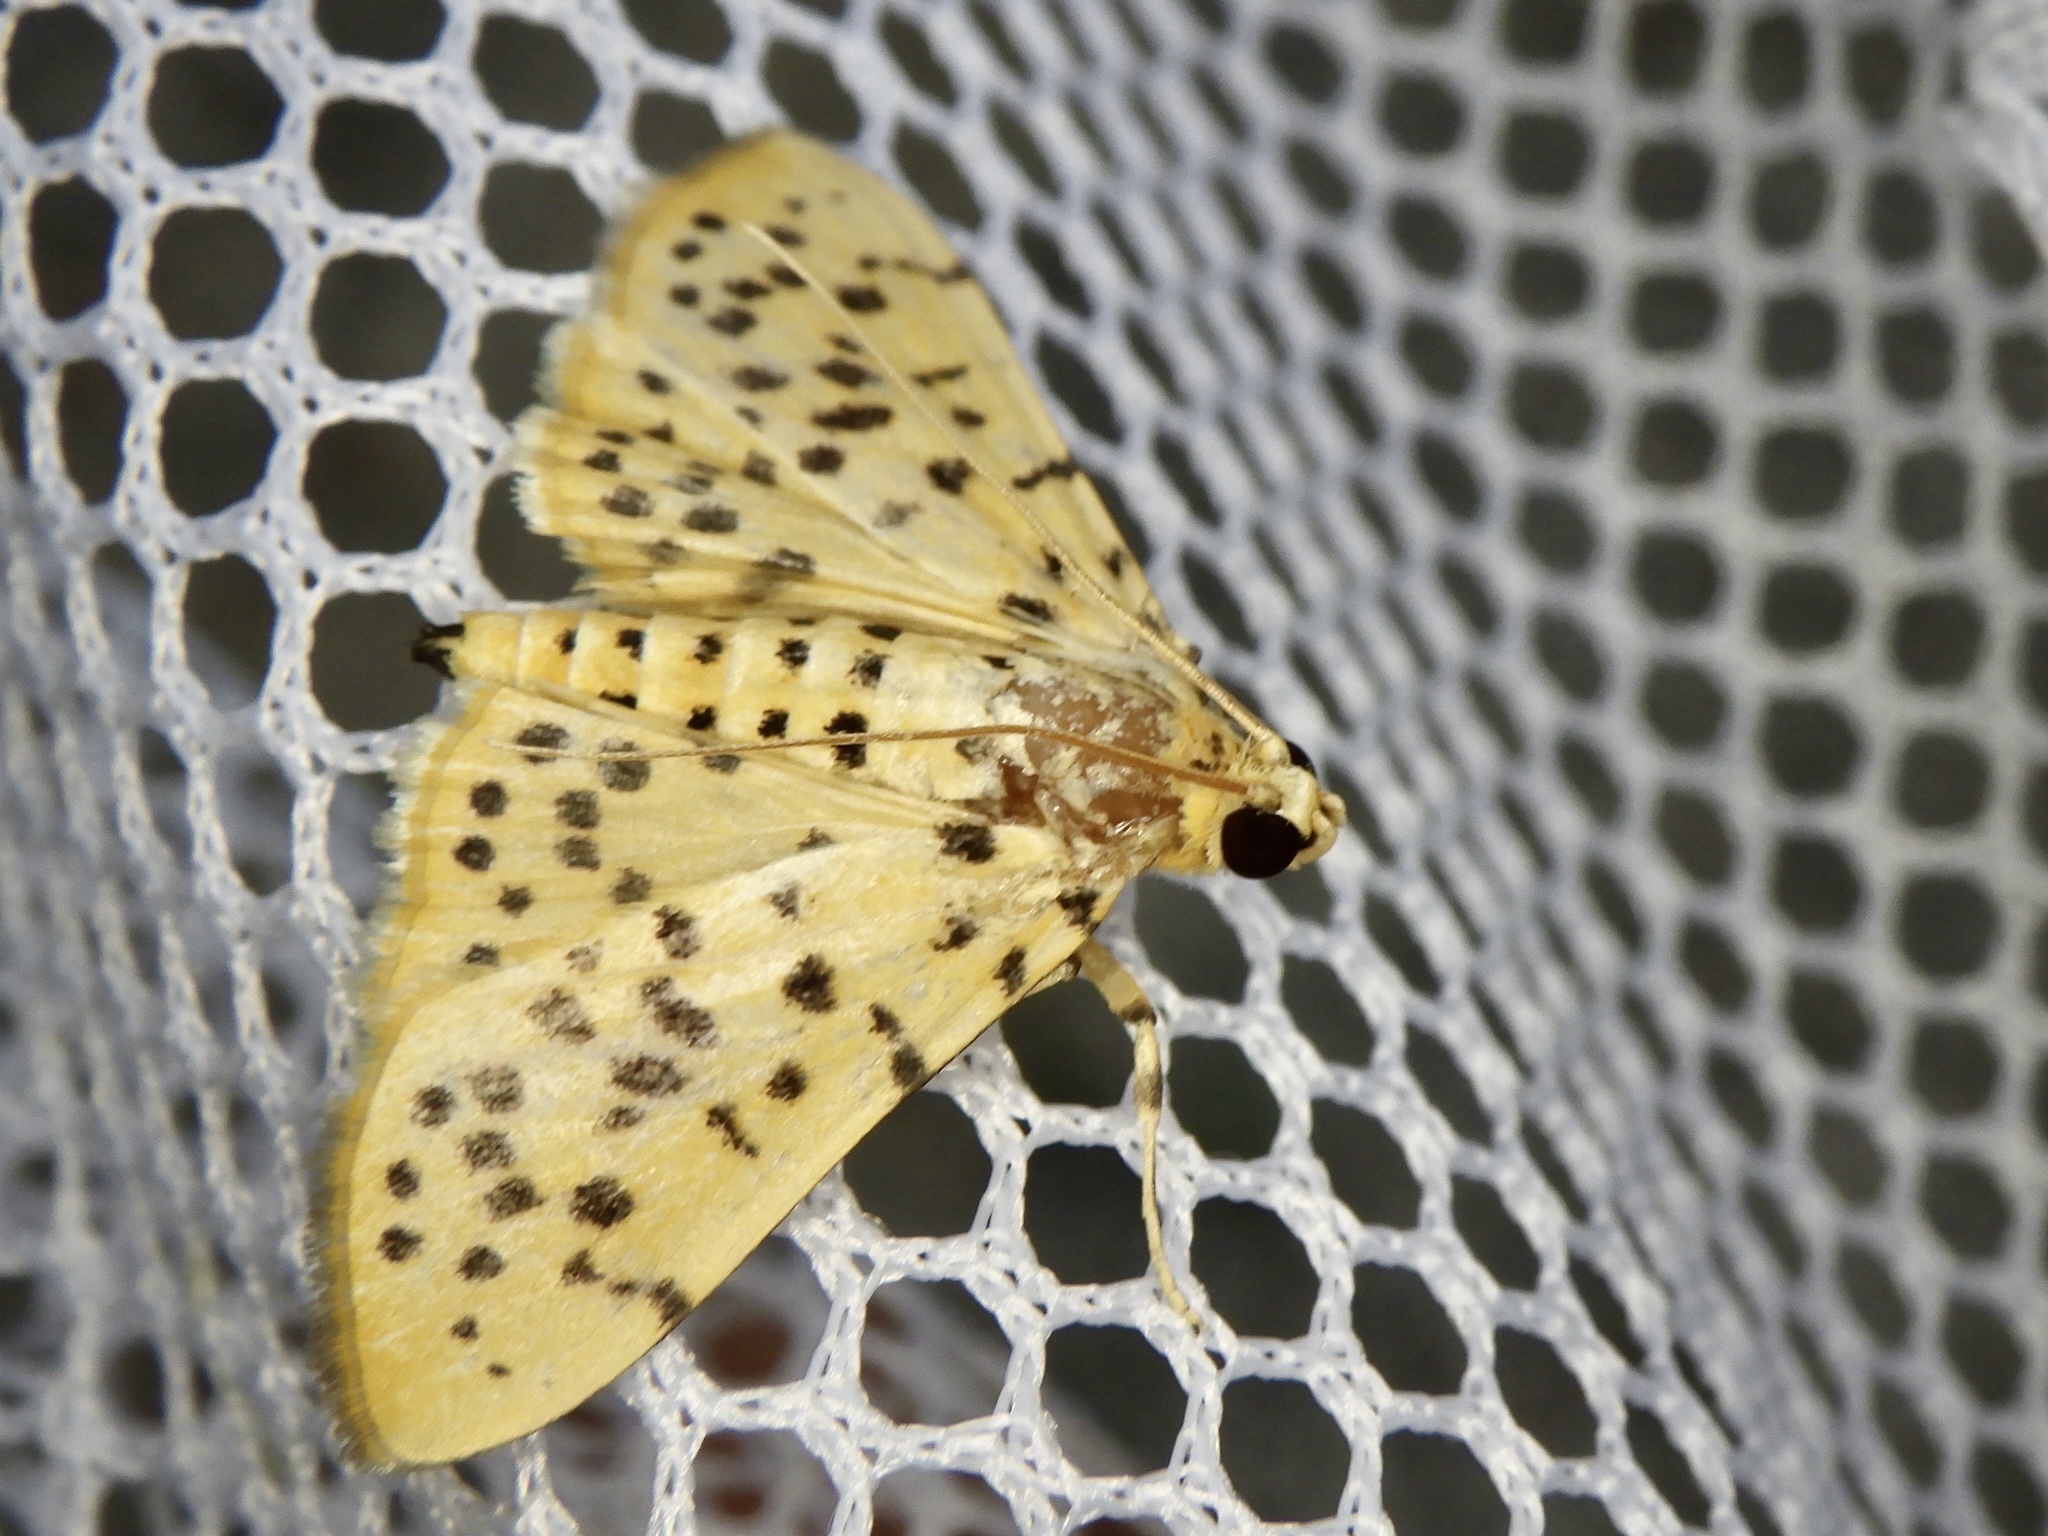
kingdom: Animalia
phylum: Arthropoda
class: Insecta
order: Lepidoptera
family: Crambidae
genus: Conogethes
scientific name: Conogethes punctiferalis
